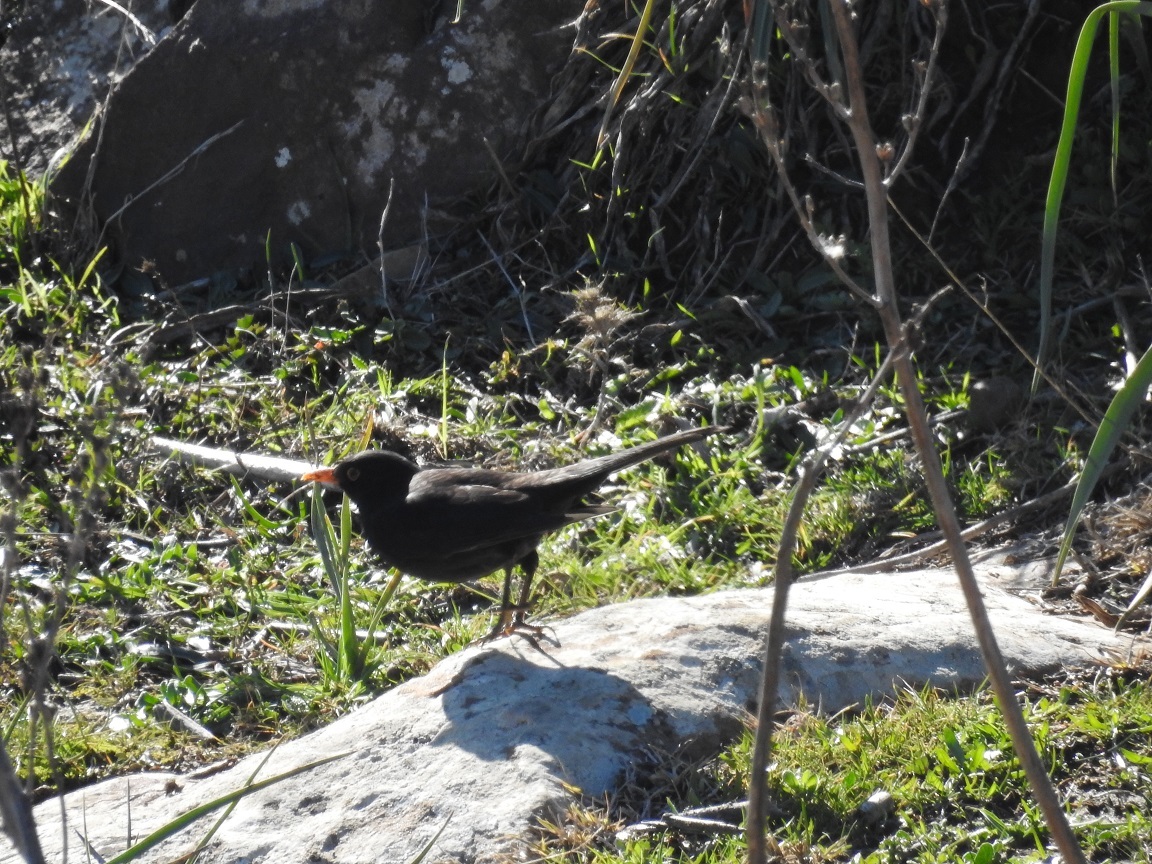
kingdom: Animalia
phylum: Chordata
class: Aves
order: Passeriformes
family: Turdidae
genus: Turdus
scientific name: Turdus merula
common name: Common blackbird
